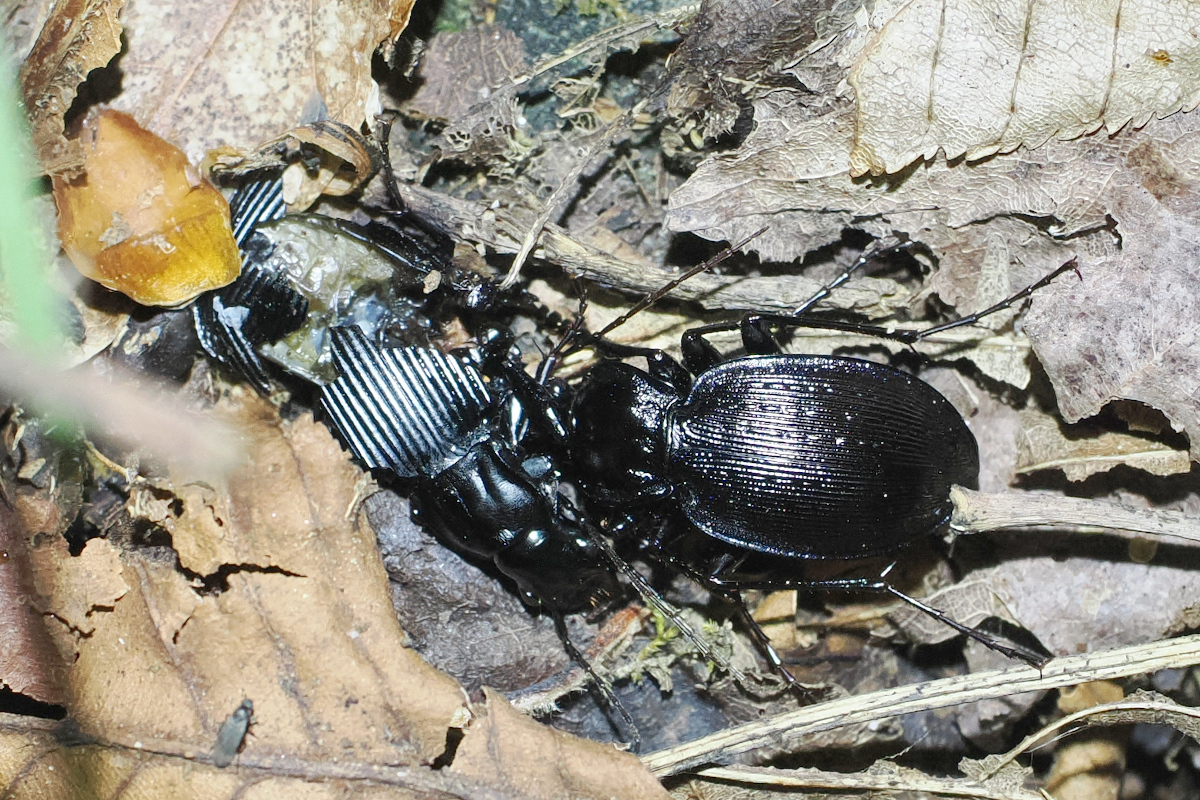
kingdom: Animalia
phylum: Arthropoda
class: Insecta
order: Coleoptera
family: Carabidae
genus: Carabus
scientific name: Carabus goryi
